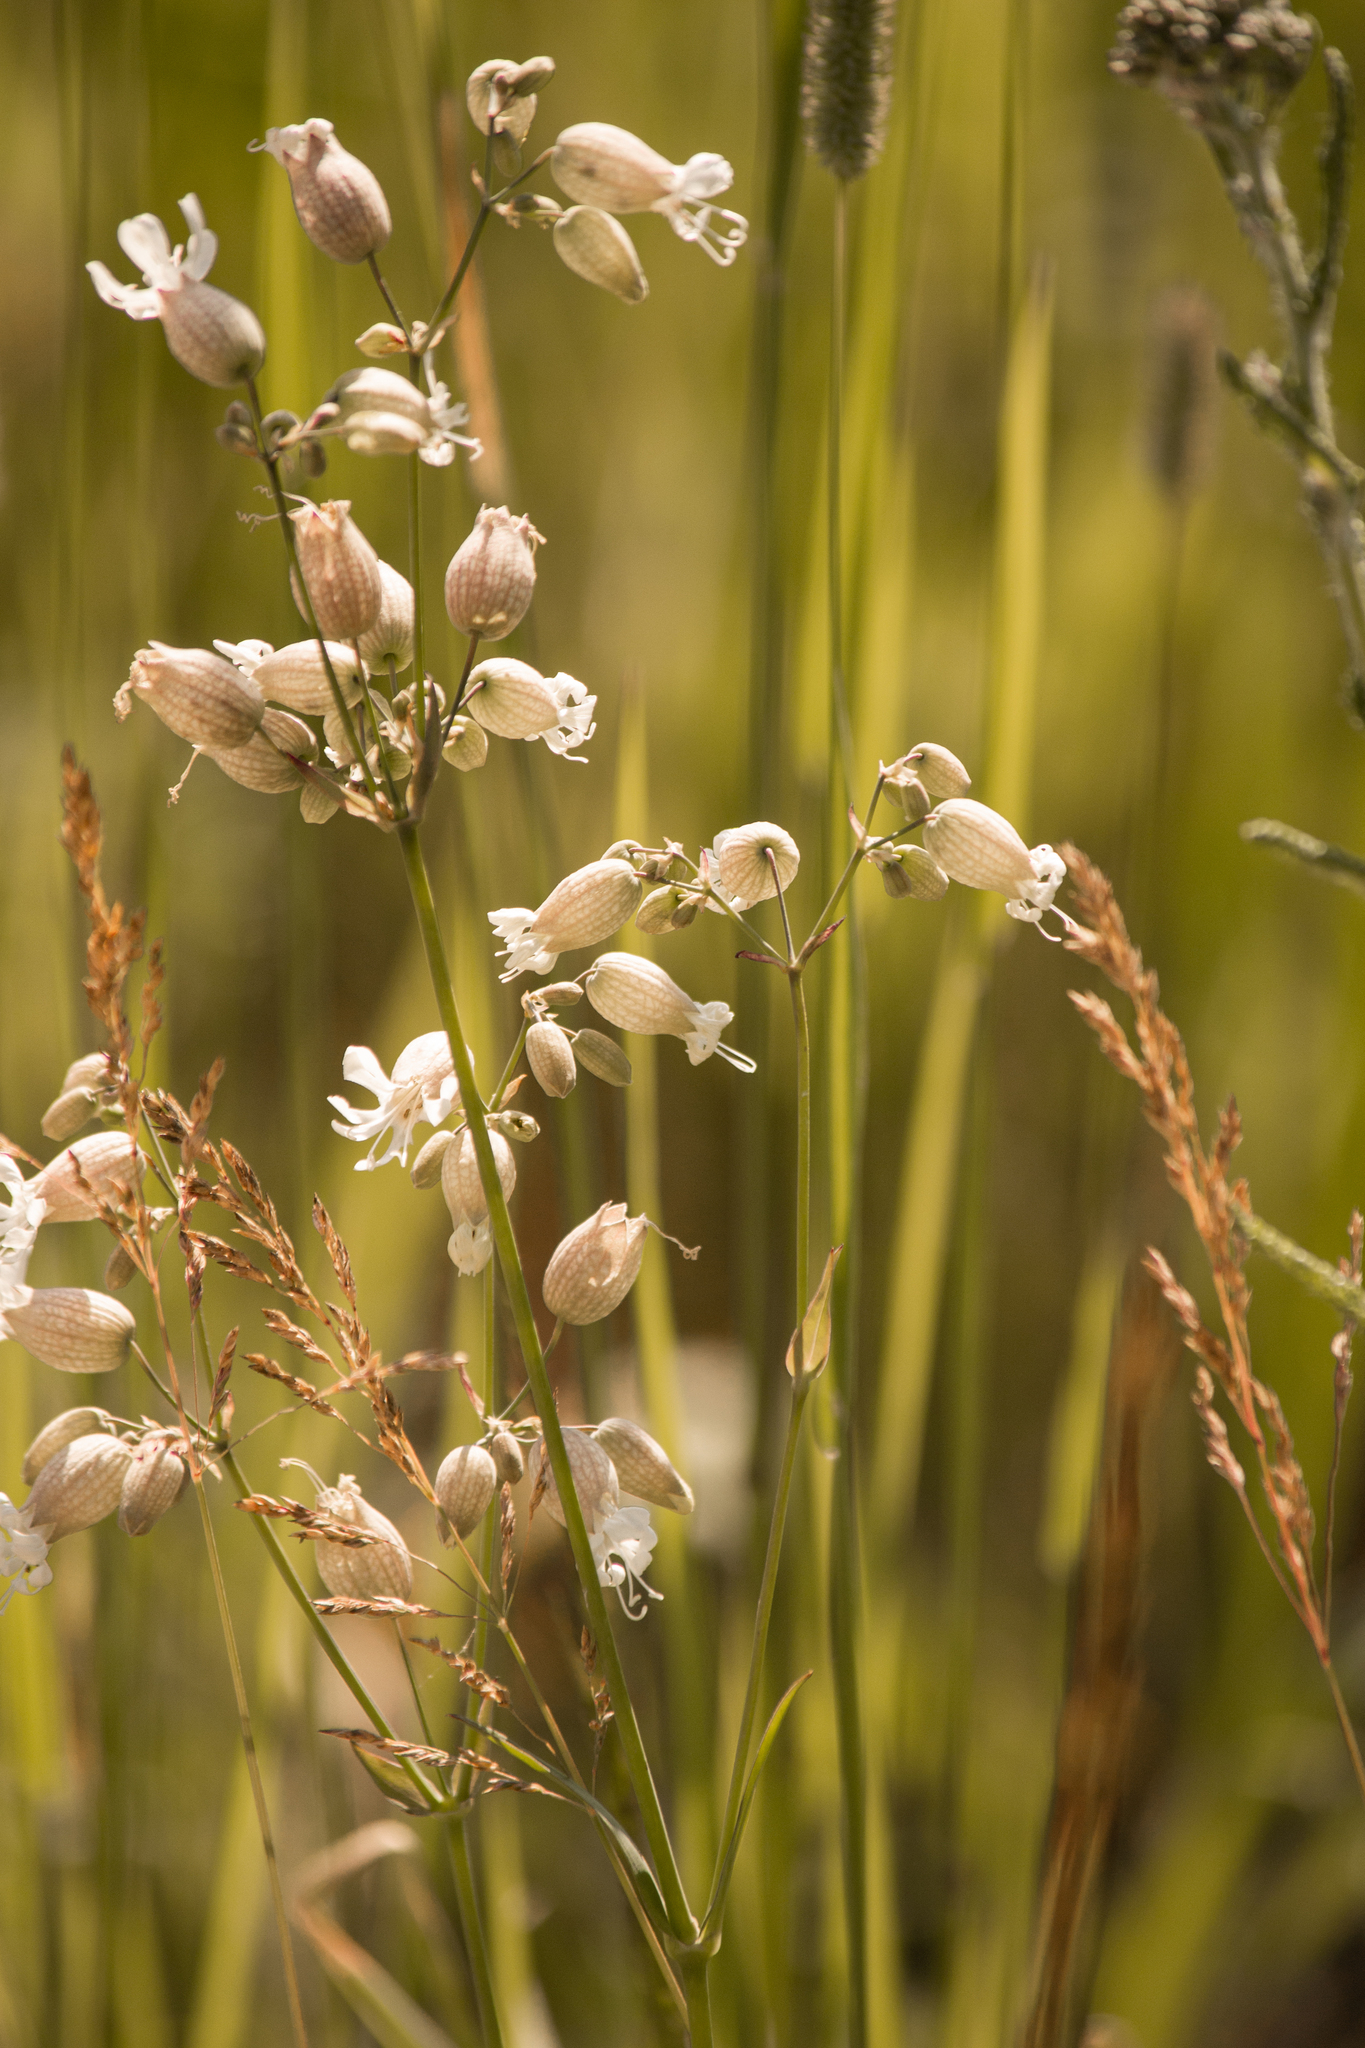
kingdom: Plantae
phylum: Tracheophyta
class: Magnoliopsida
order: Caryophyllales
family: Caryophyllaceae
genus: Silene
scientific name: Silene vulgaris
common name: Bladder campion
